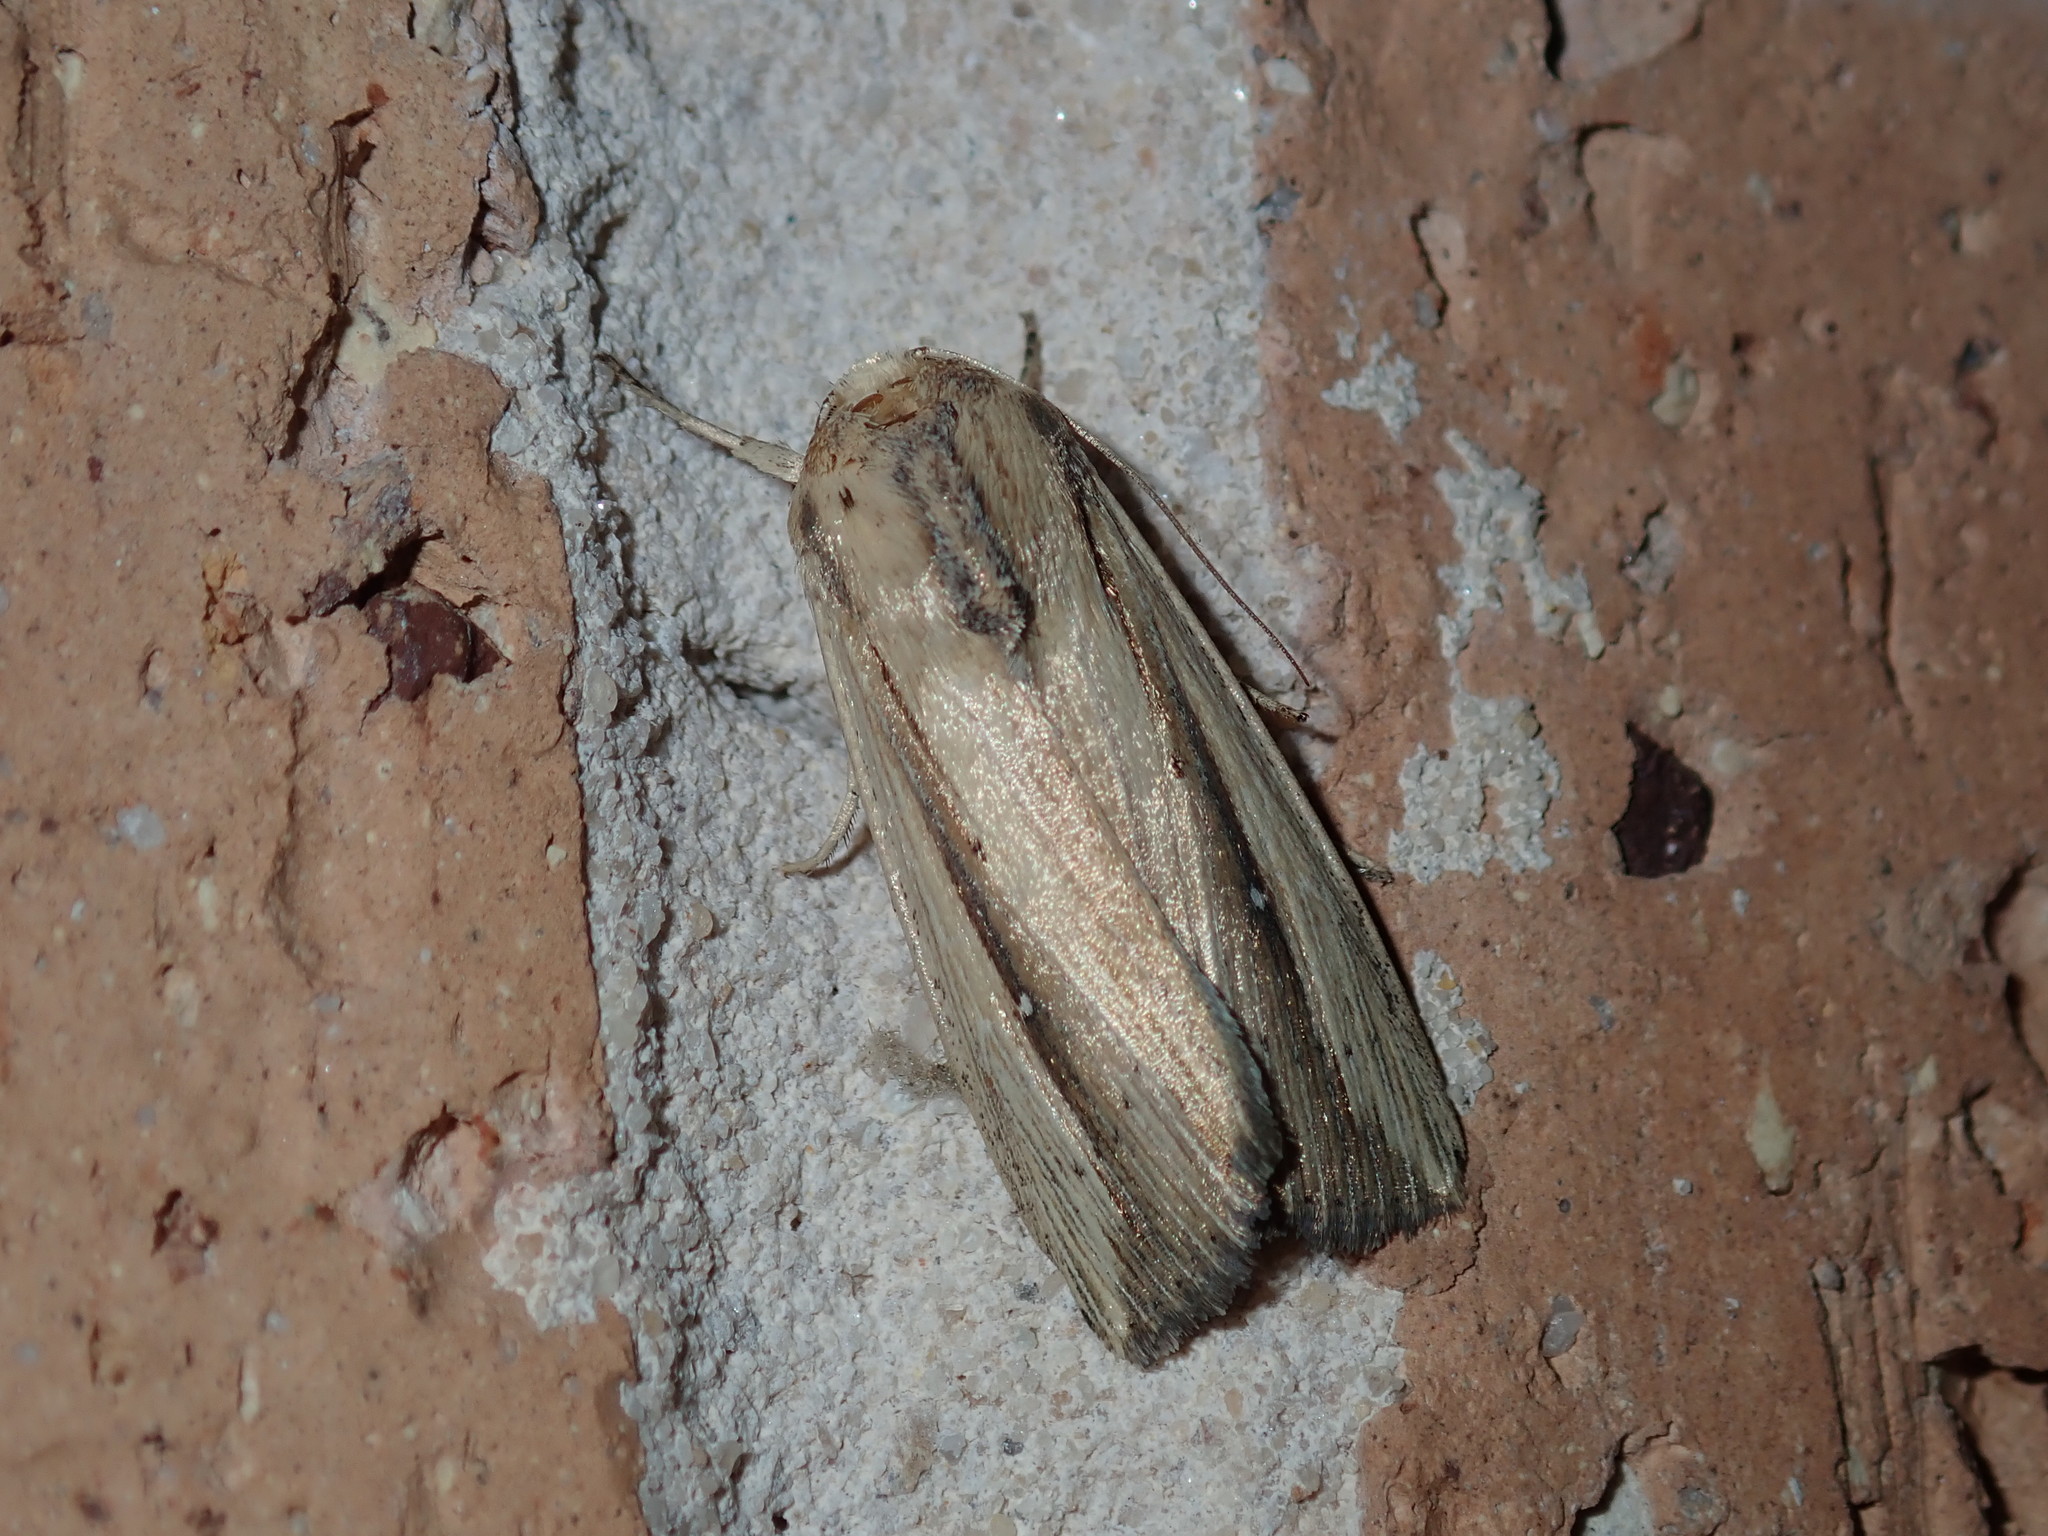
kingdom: Animalia
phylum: Arthropoda
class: Insecta
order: Lepidoptera
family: Noctuidae
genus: Leucania
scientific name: Leucania stenographa
